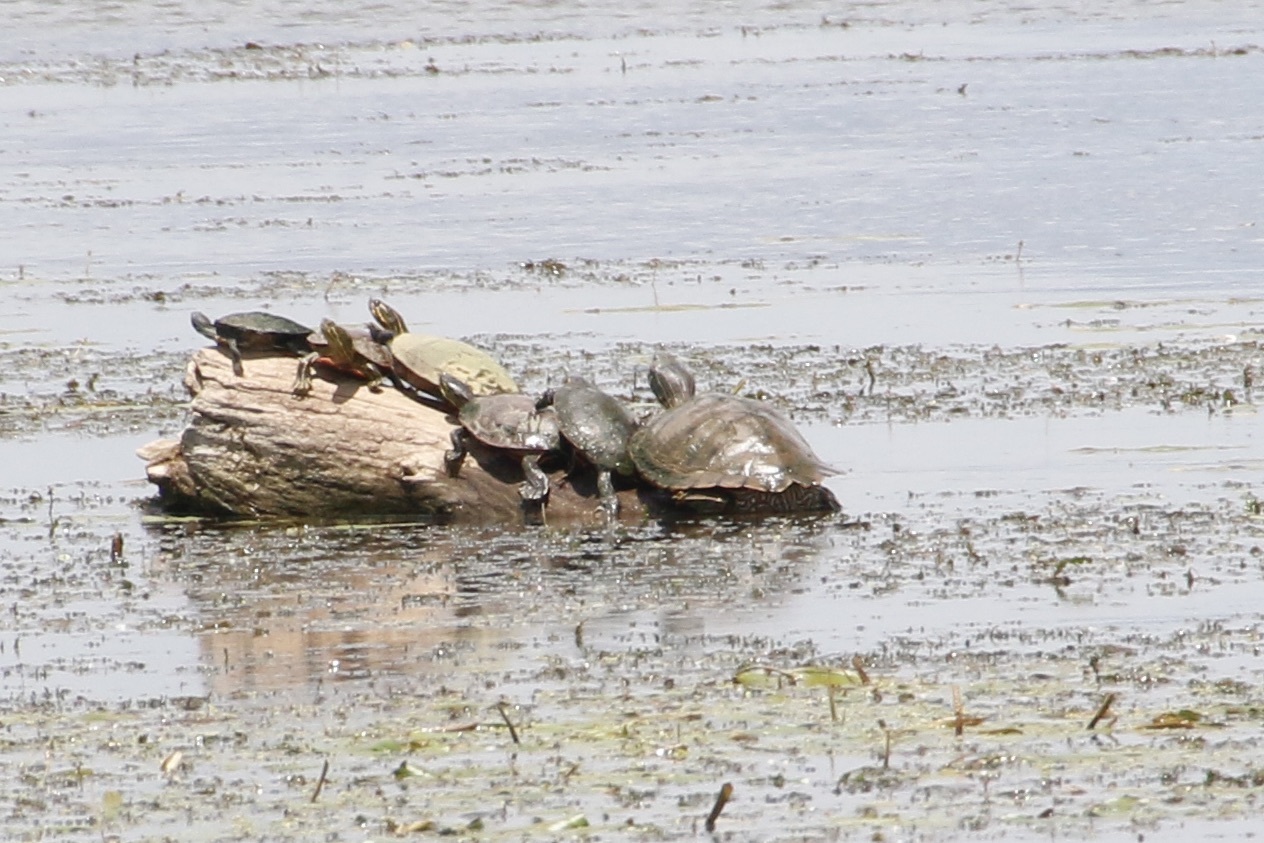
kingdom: Animalia
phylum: Chordata
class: Testudines
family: Emydidae
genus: Graptemys
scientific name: Graptemys geographica
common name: Common map turtle
